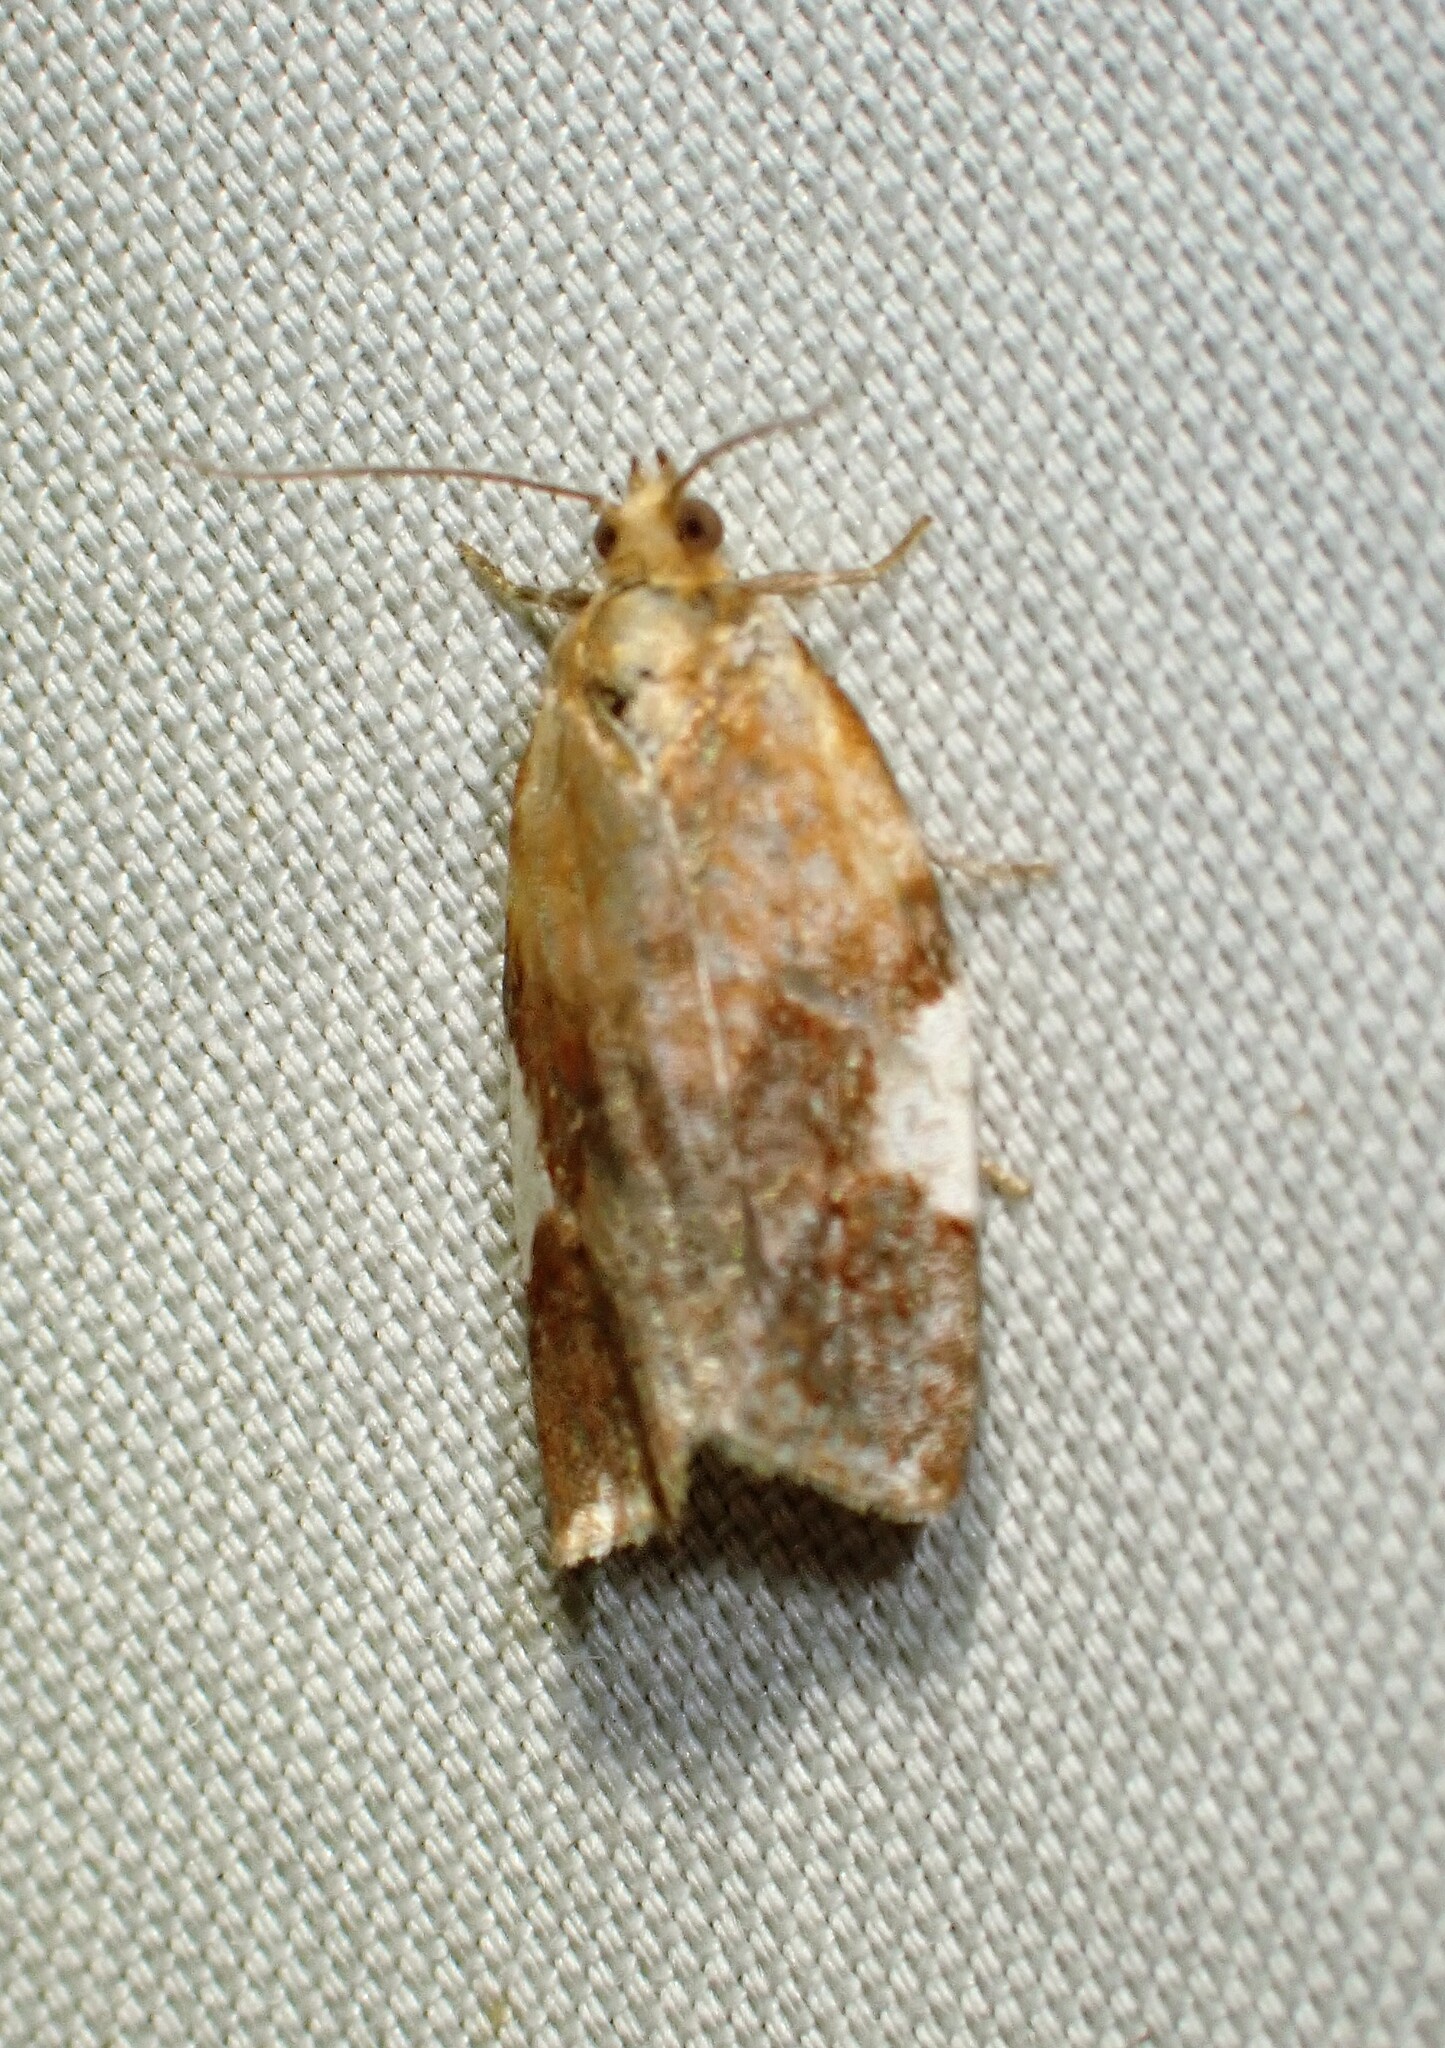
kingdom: Animalia
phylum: Arthropoda
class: Insecta
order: Lepidoptera
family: Tortricidae
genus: Clepsis
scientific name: Clepsis persicana
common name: White triangle tortrix
